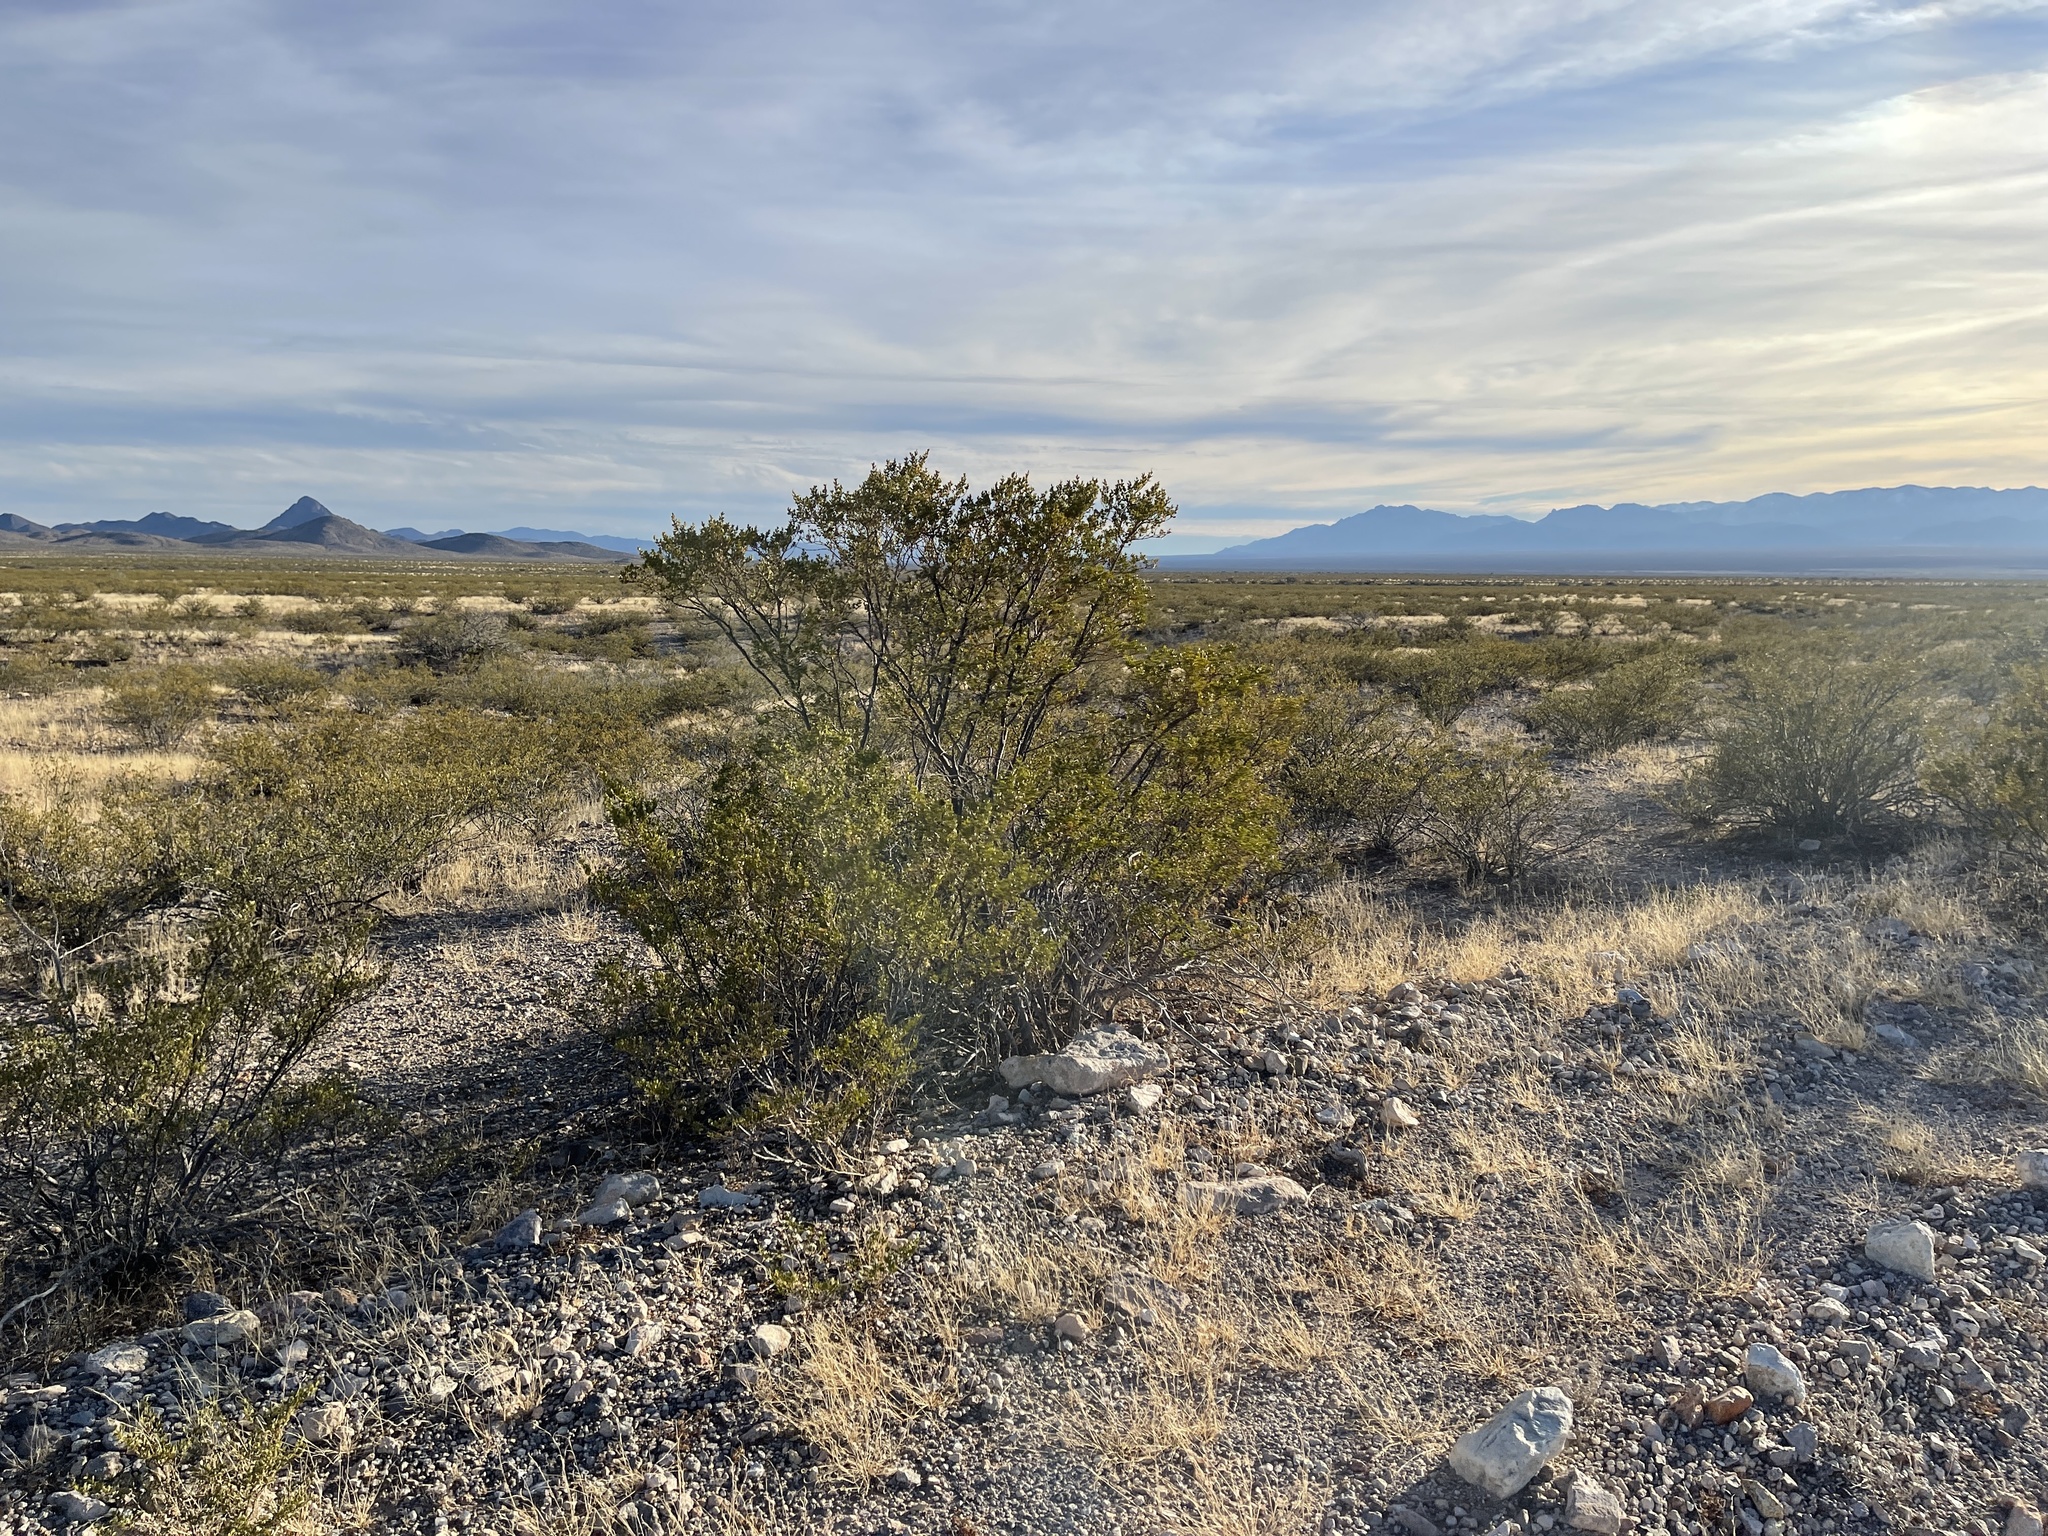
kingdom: Plantae
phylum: Tracheophyta
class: Magnoliopsida
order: Zygophyllales
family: Zygophyllaceae
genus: Larrea
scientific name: Larrea tridentata
